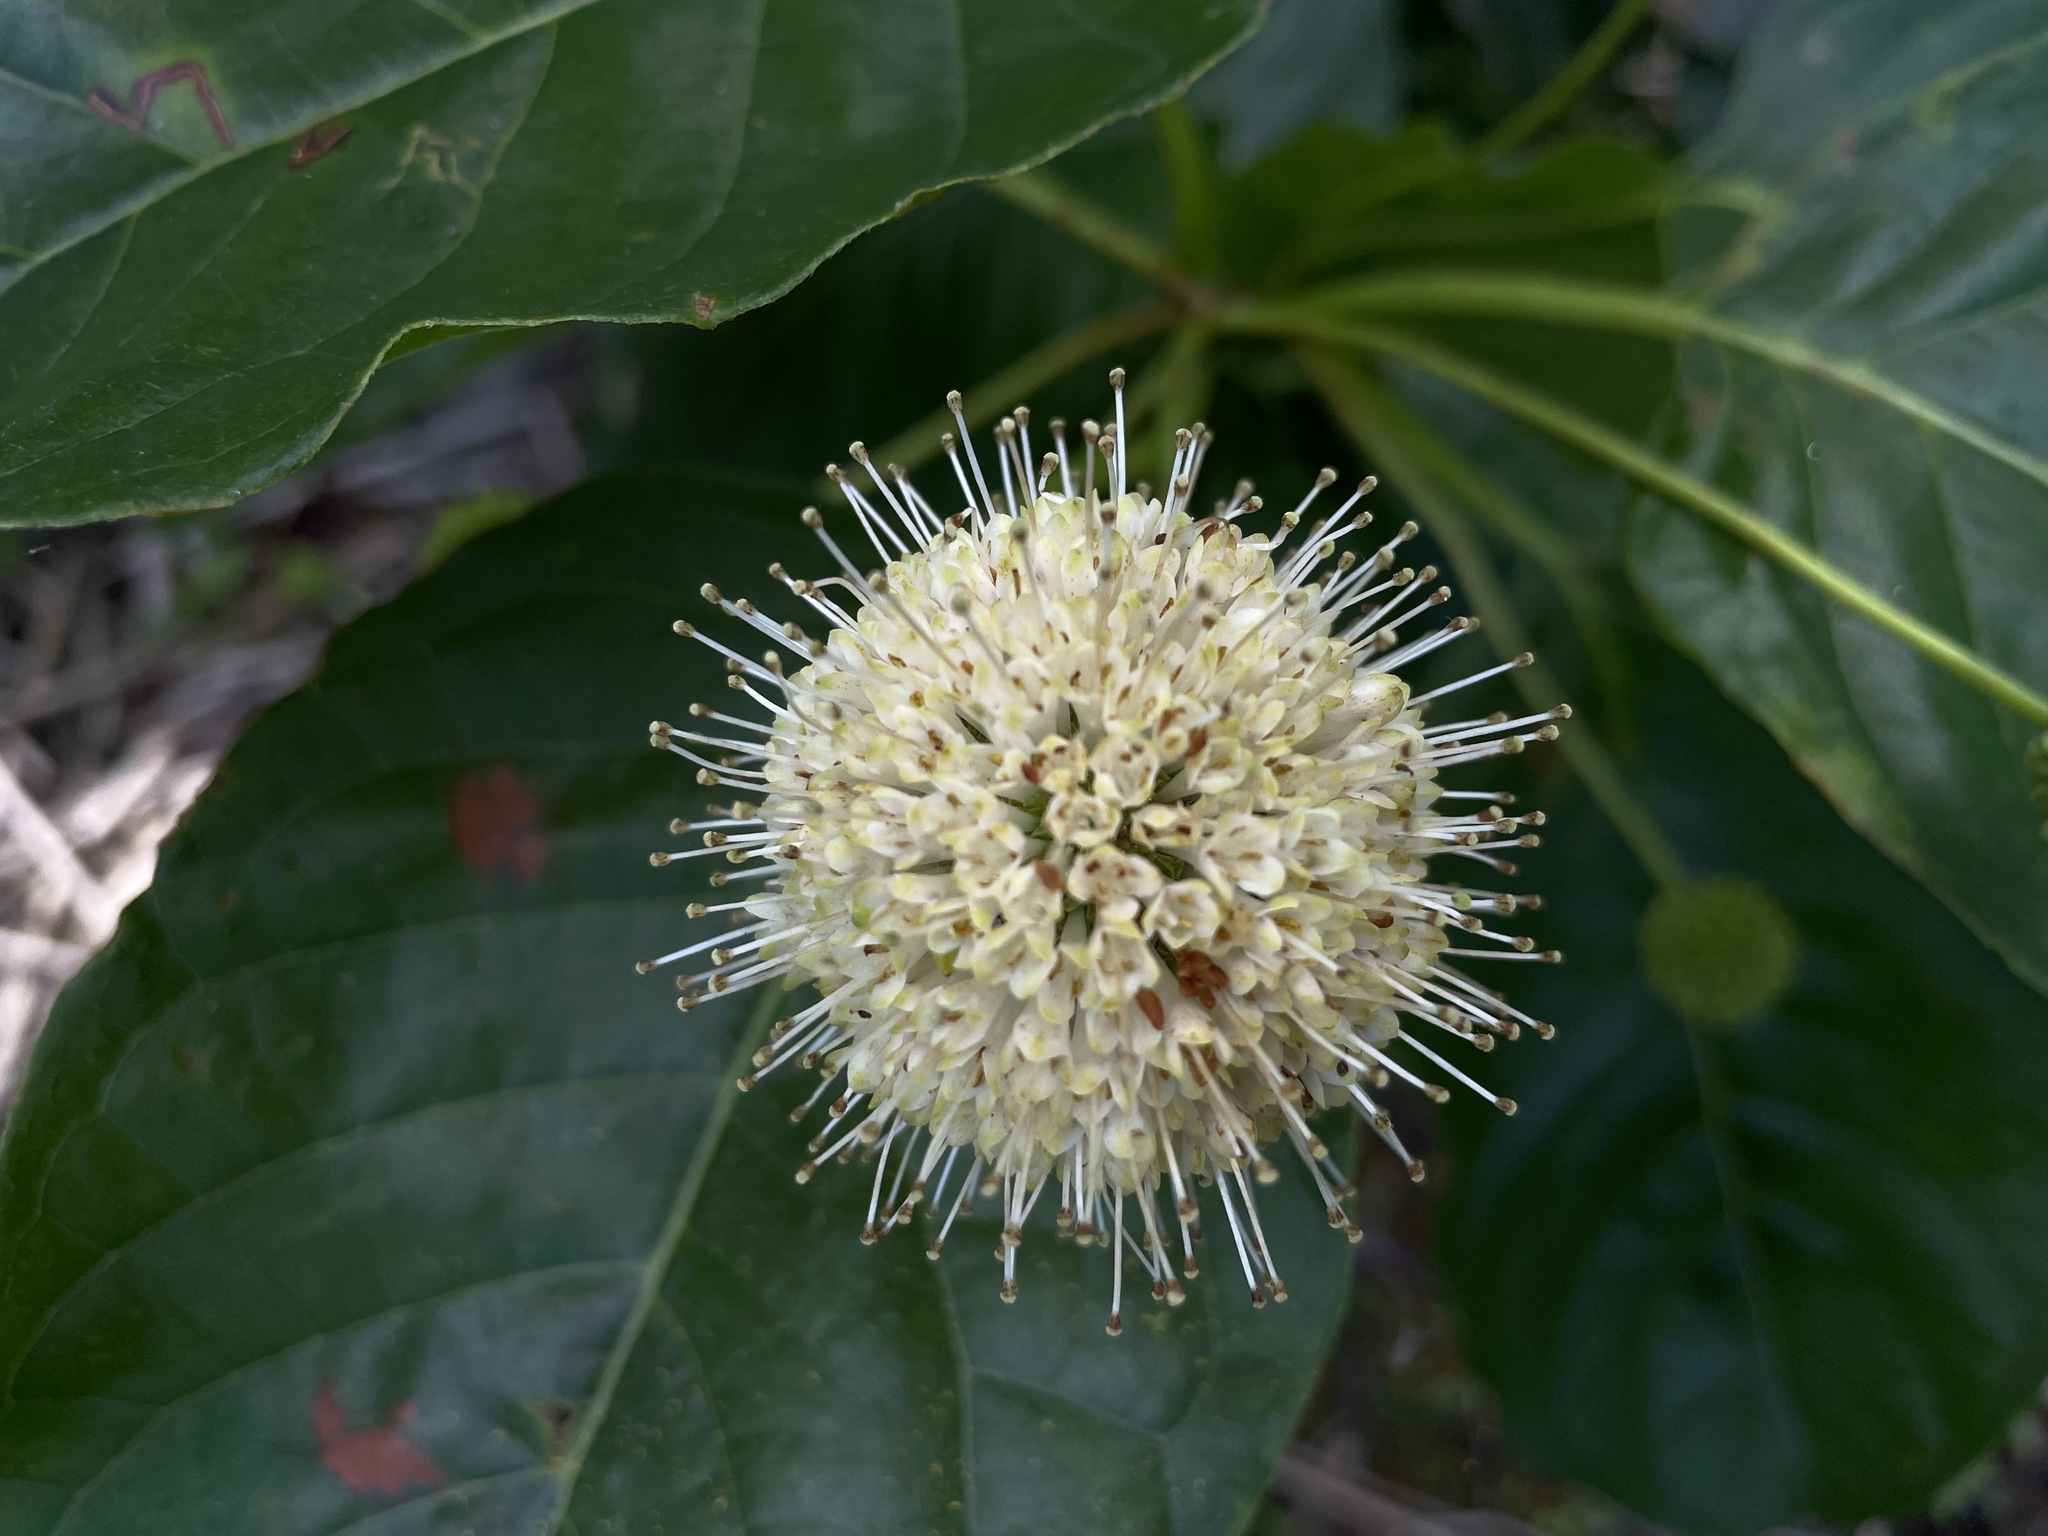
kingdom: Plantae
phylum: Tracheophyta
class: Magnoliopsida
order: Gentianales
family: Rubiaceae
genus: Cephalanthus
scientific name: Cephalanthus occidentalis
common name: Button-willow
